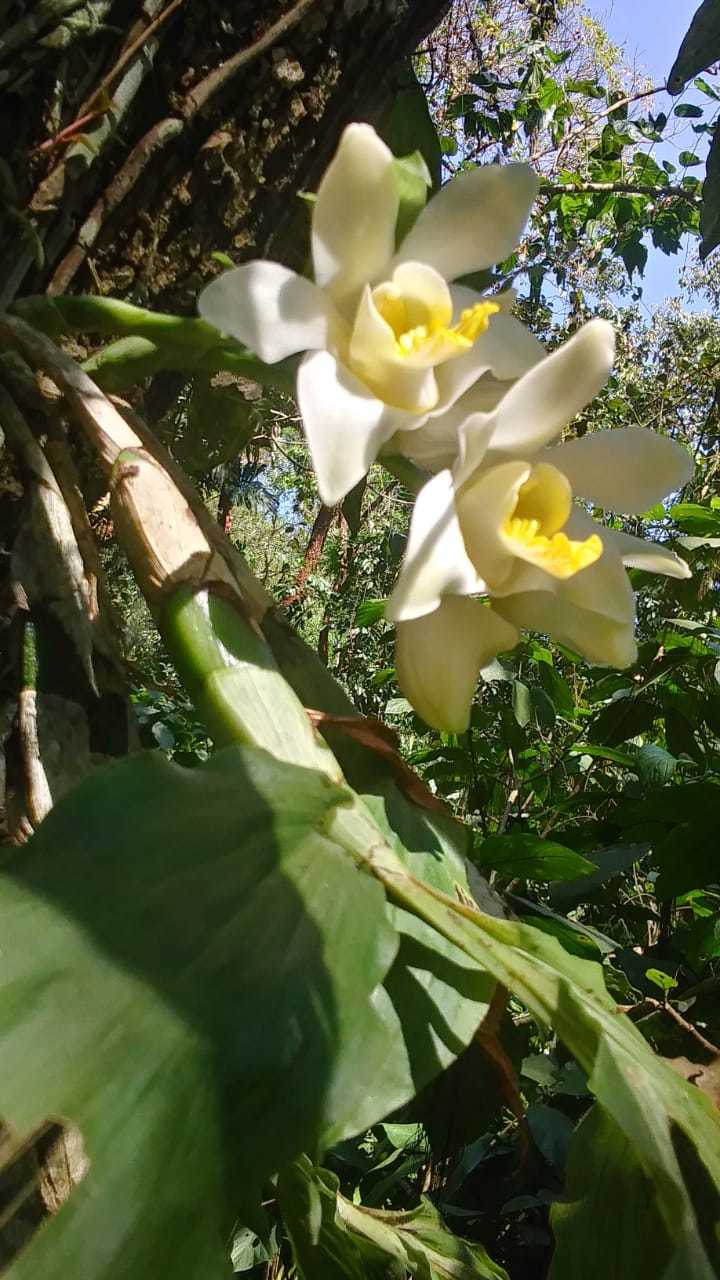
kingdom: Plantae
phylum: Tracheophyta
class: Liliopsida
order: Asparagales
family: Orchidaceae
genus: Chysis
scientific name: Chysis bractescens
